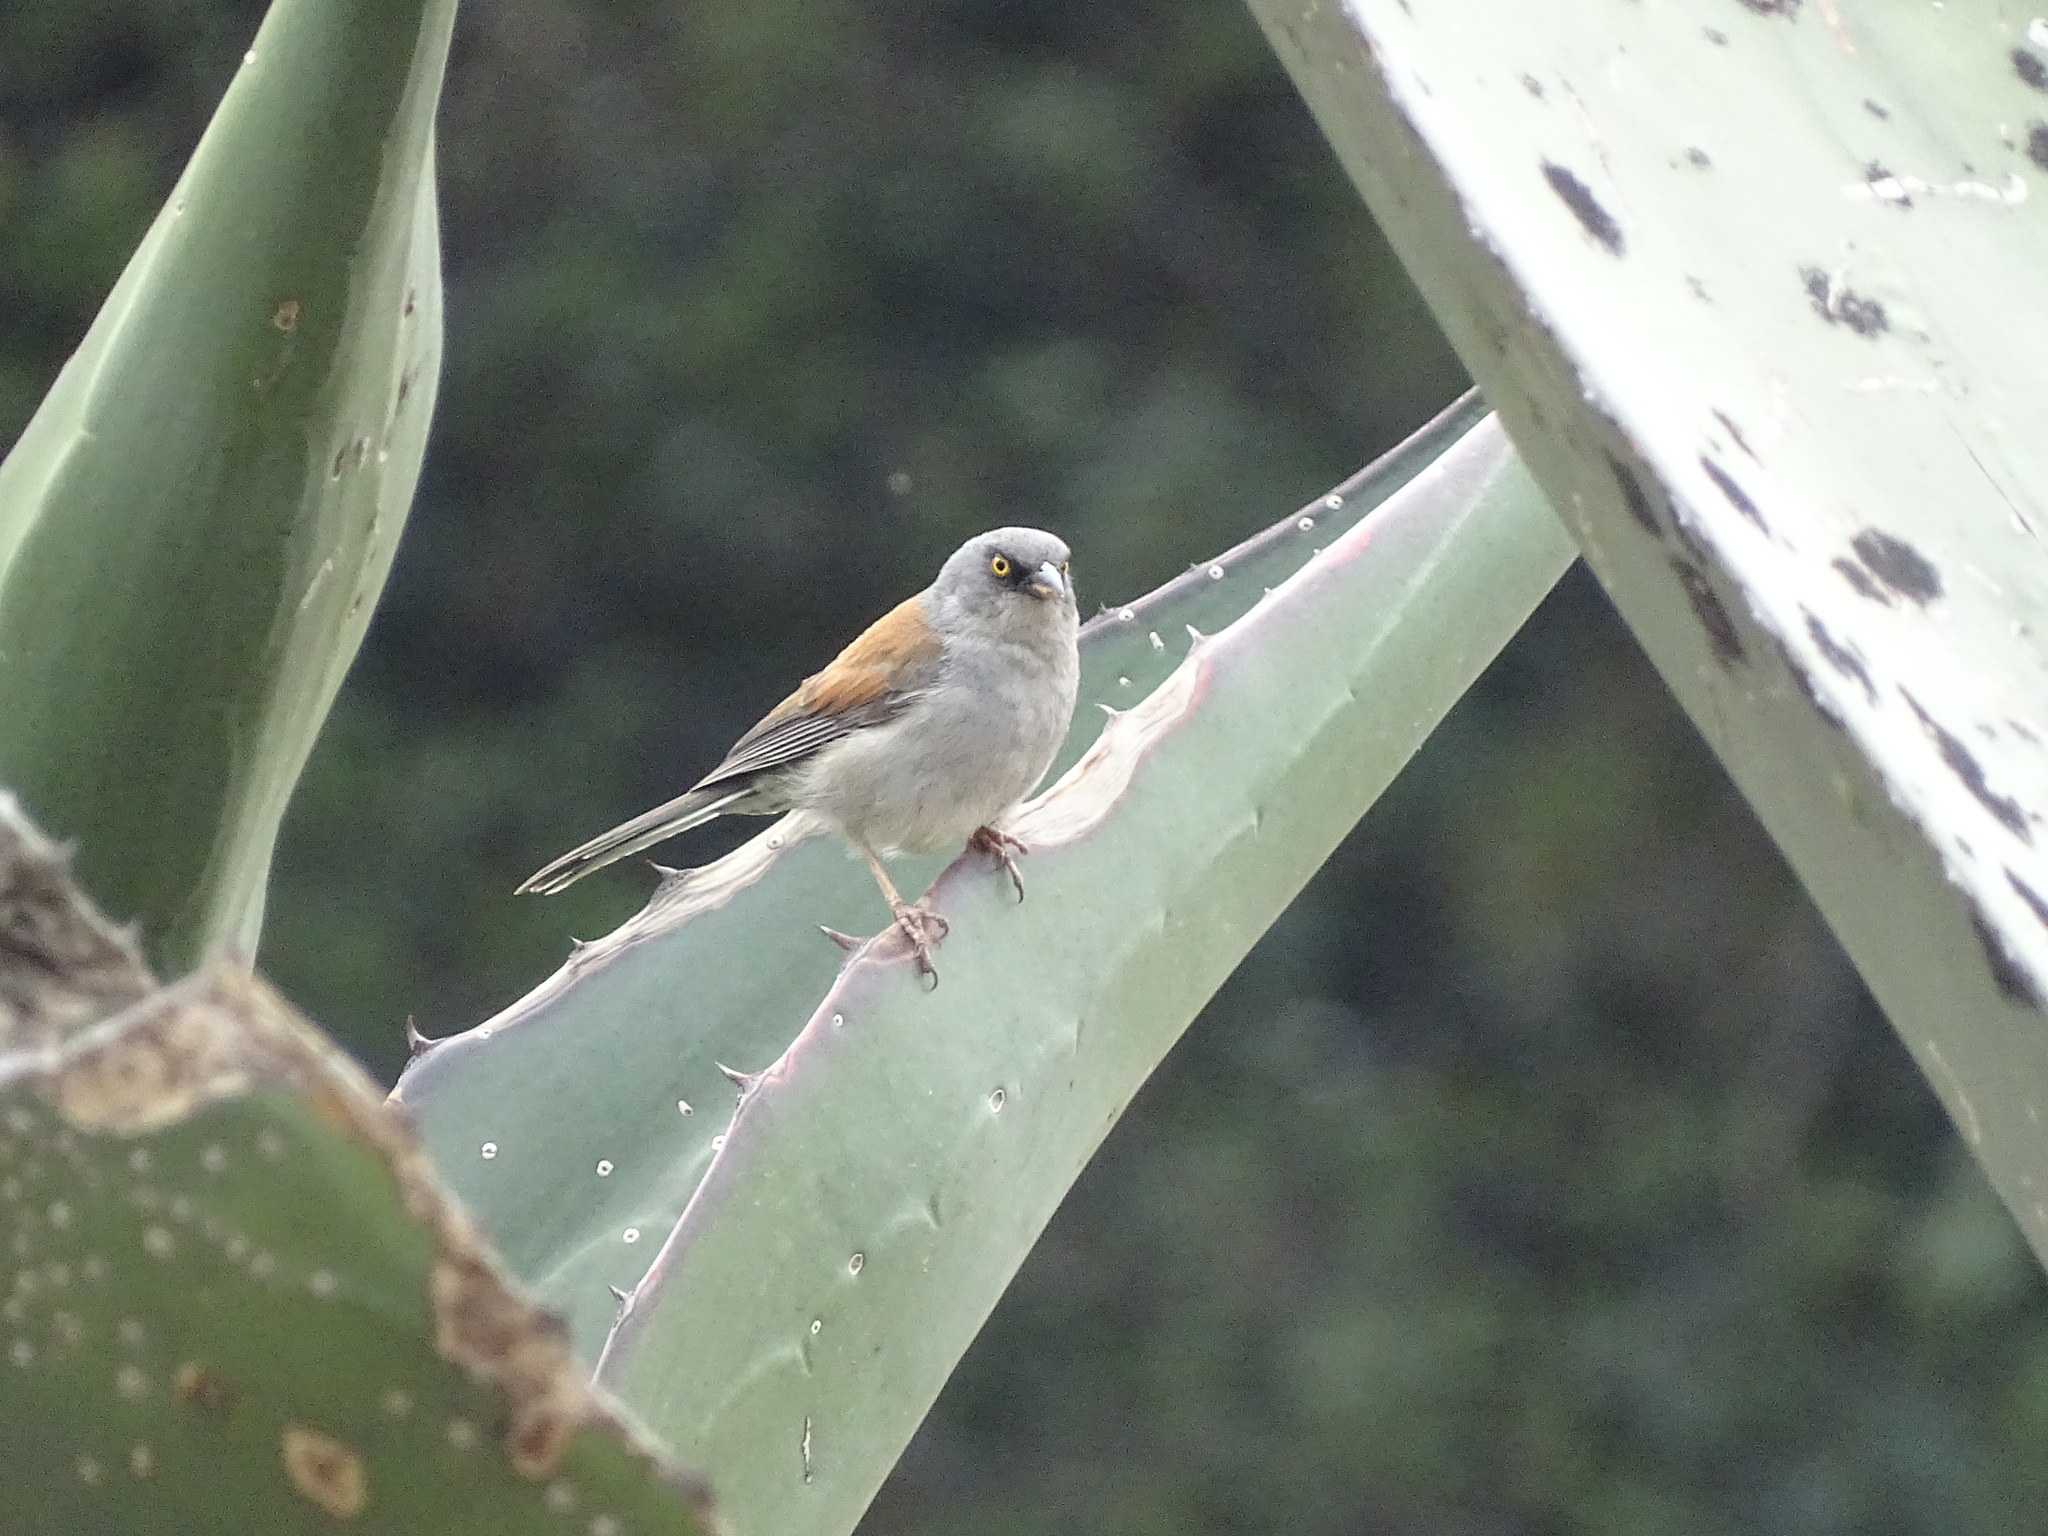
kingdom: Animalia
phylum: Chordata
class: Aves
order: Passeriformes
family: Passerellidae
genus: Junco
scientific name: Junco phaeonotus
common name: Yellow-eyed junco
